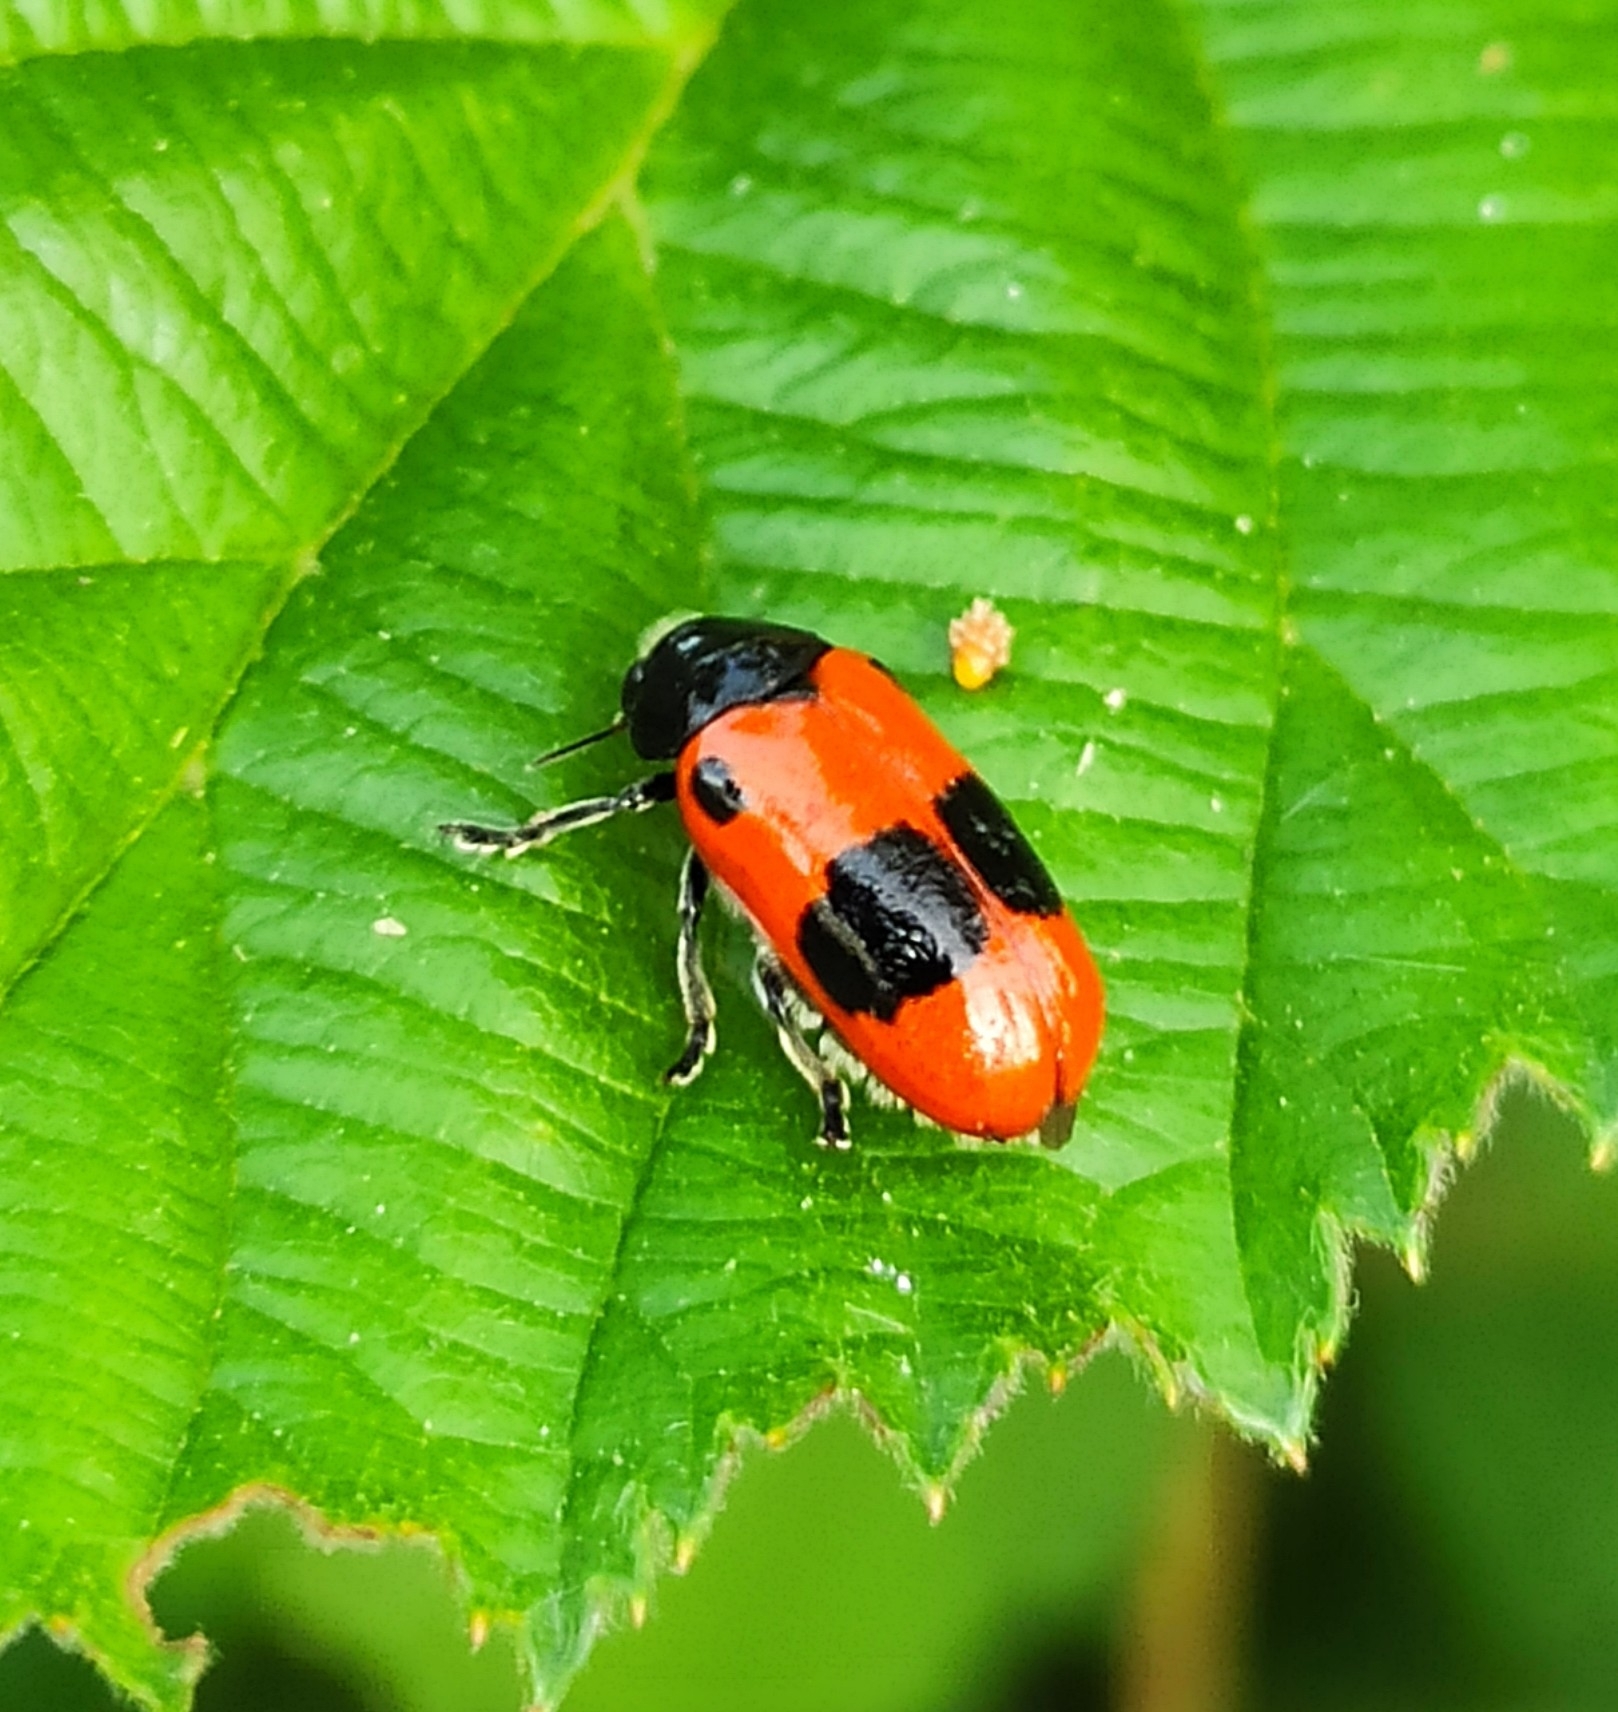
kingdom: Animalia
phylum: Arthropoda
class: Insecta
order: Coleoptera
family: Chrysomelidae
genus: Clytra
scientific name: Clytra laeviuscula
